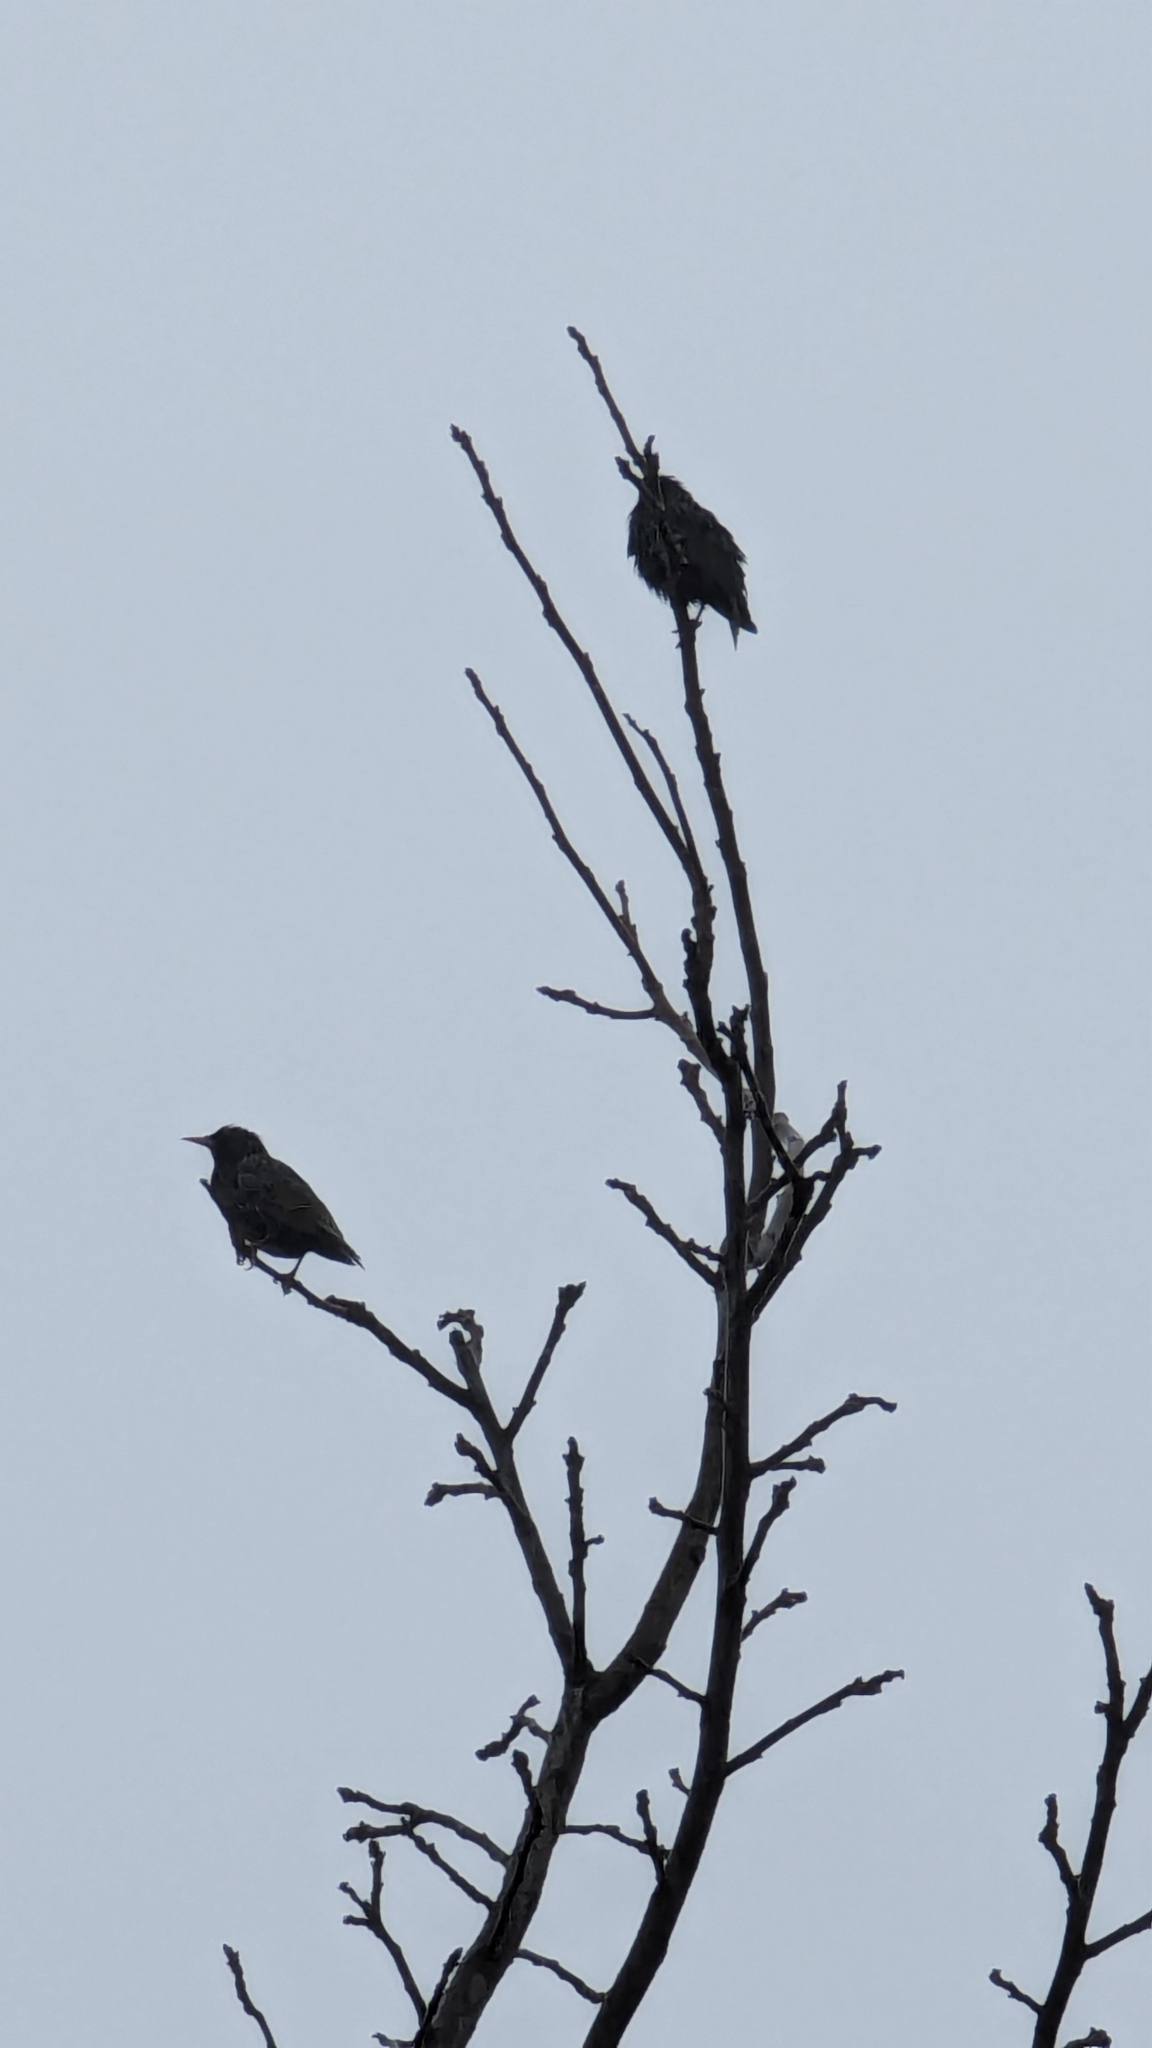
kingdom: Animalia
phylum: Chordata
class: Aves
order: Passeriformes
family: Sturnidae
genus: Sturnus
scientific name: Sturnus vulgaris
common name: Common starling
